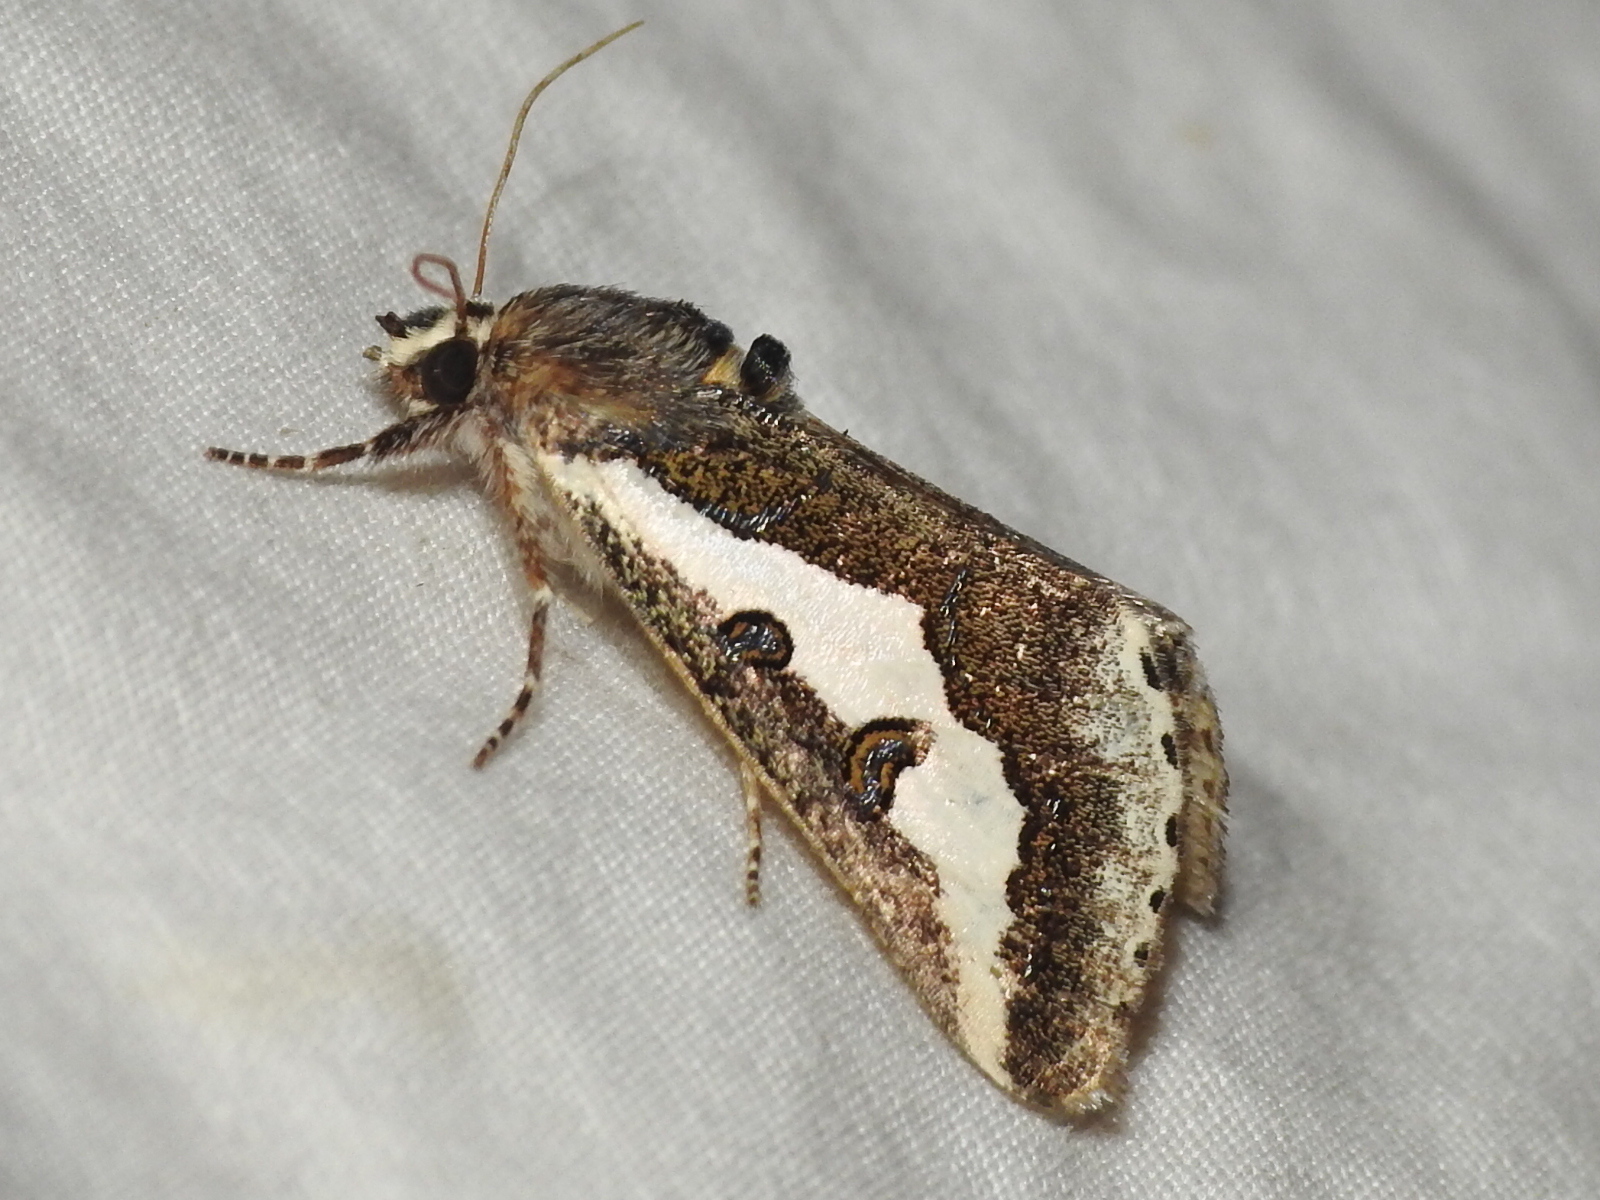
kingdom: Animalia
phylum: Arthropoda
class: Insecta
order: Lepidoptera
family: Noctuidae
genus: Euscirrhopterus
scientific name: Euscirrhopterus gloveri
